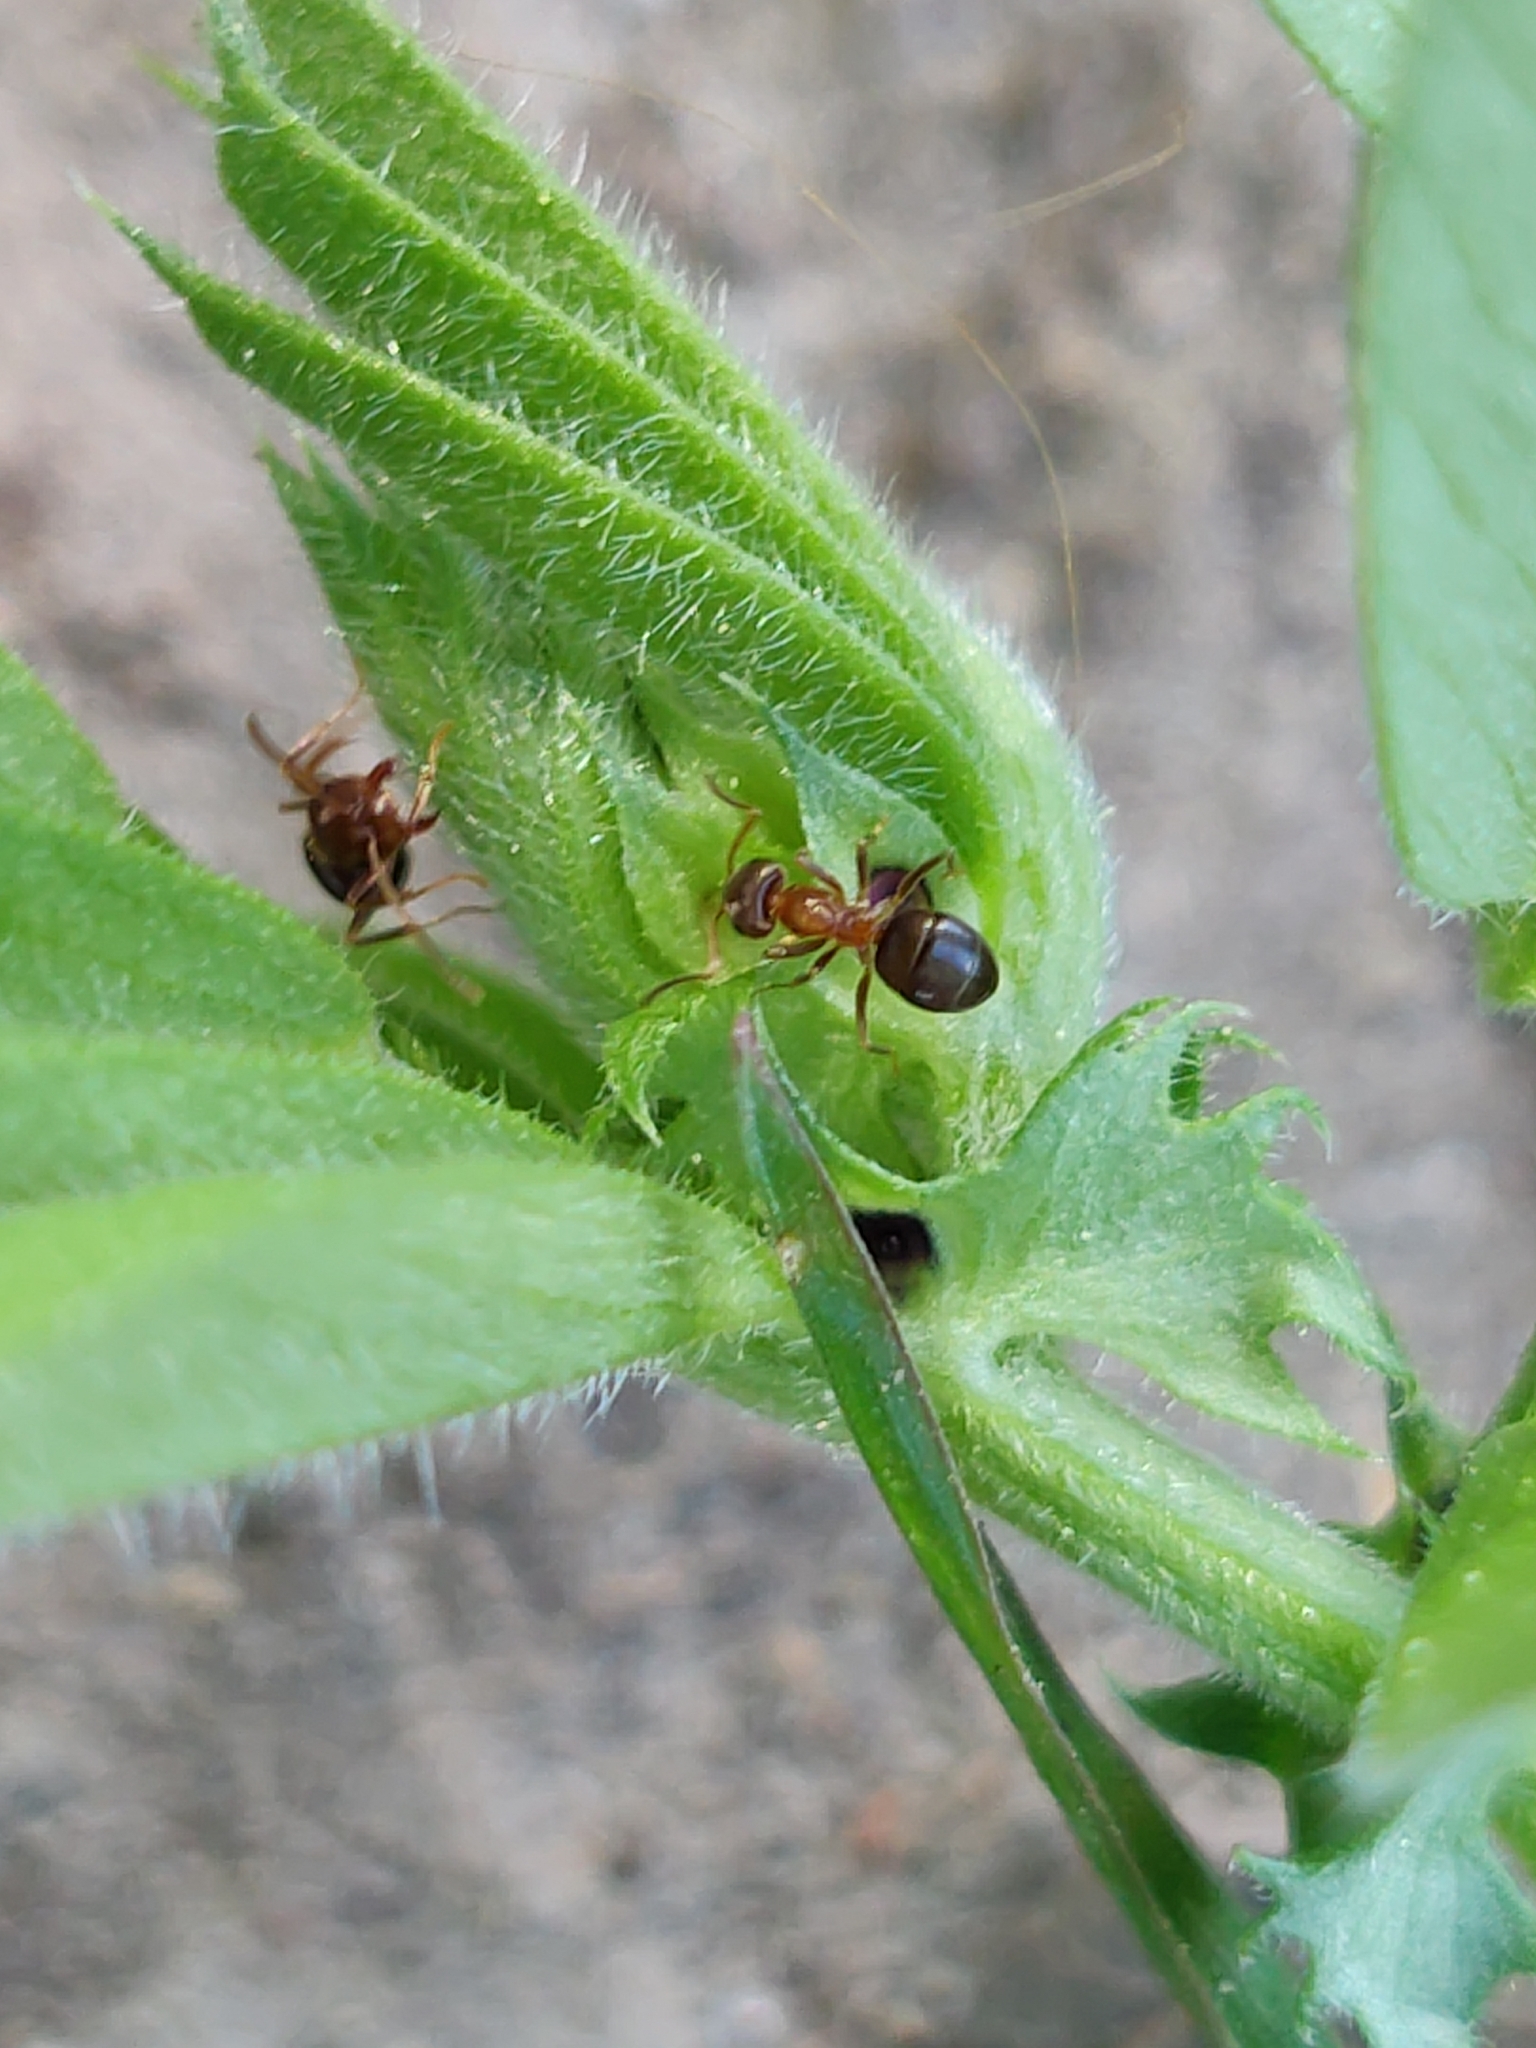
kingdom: Animalia
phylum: Arthropoda
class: Insecta
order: Hymenoptera
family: Formicidae
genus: Lasius
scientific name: Lasius brunneus
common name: Brown ant
